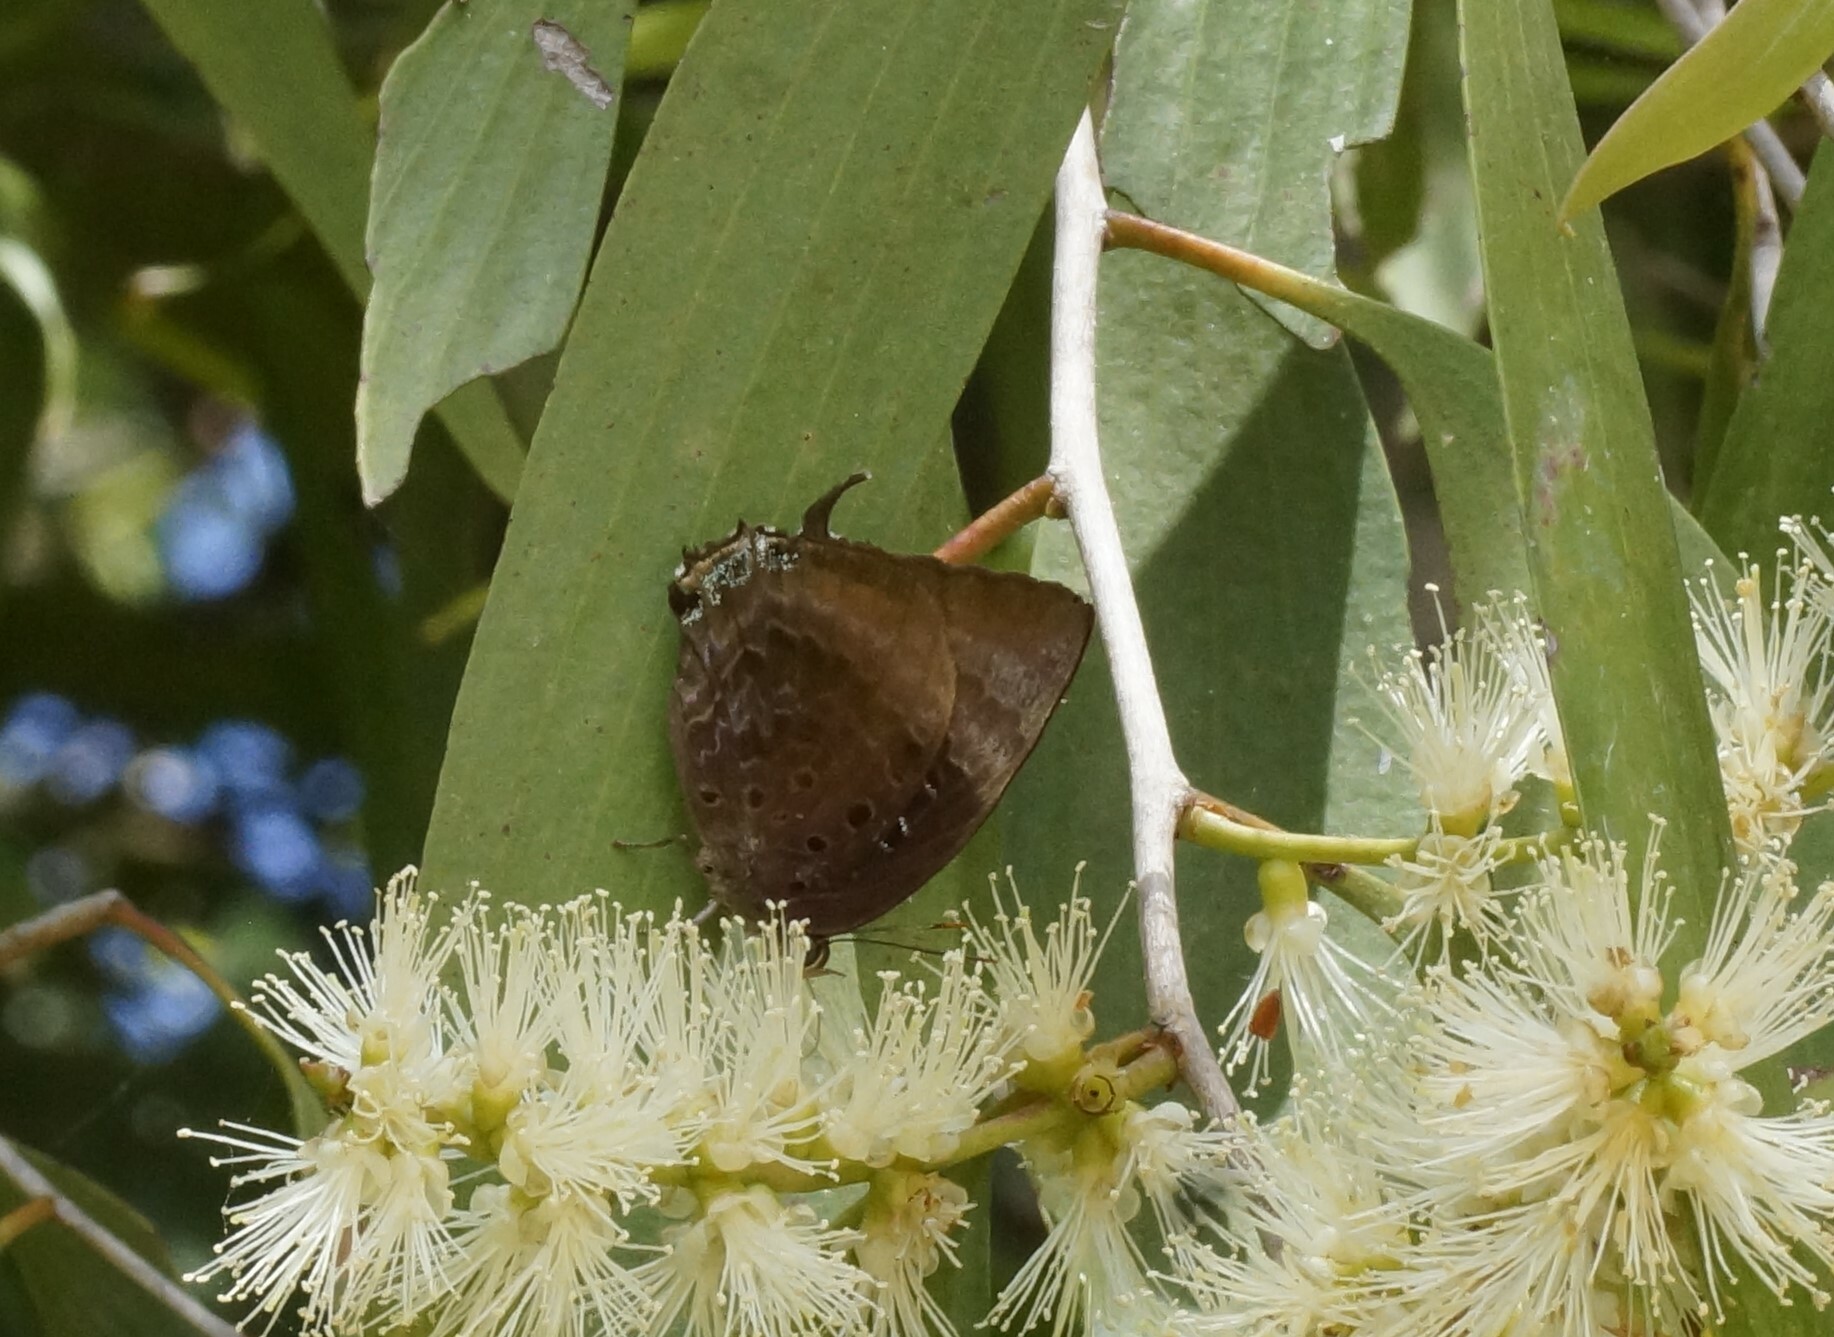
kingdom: Animalia
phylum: Arthropoda
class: Insecta
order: Lepidoptera
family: Lycaenidae
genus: Arhopala
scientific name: Arhopala micale
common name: Shining oak-blue
